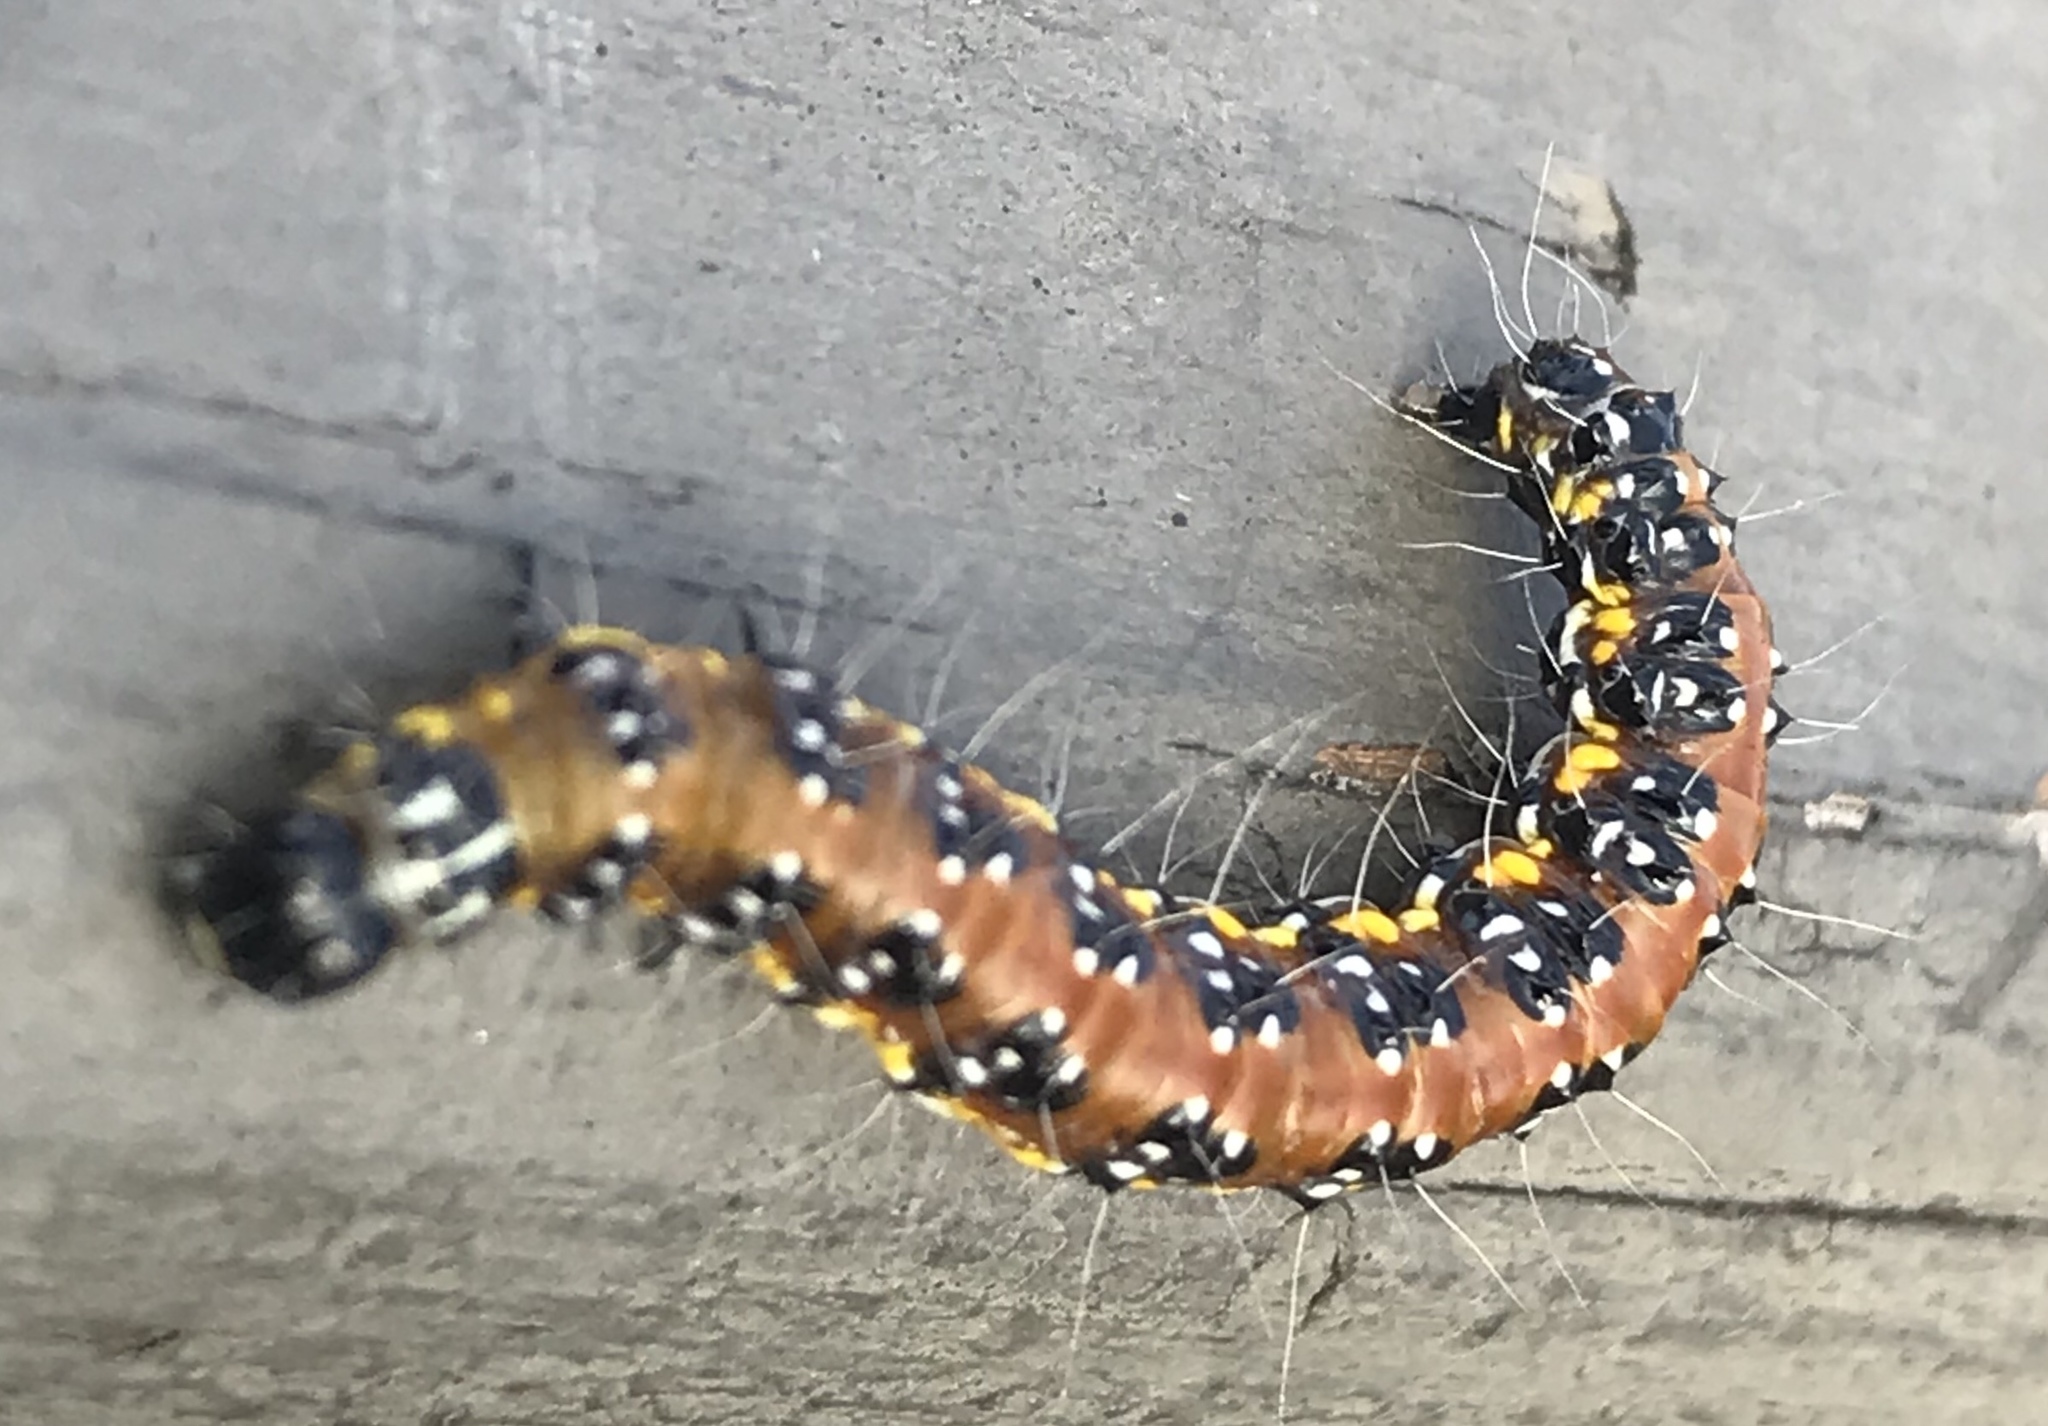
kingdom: Animalia
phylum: Arthropoda
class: Insecta
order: Lepidoptera
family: Crambidae
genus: Uresiphita
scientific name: Uresiphita reversalis
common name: Genista broom moth
